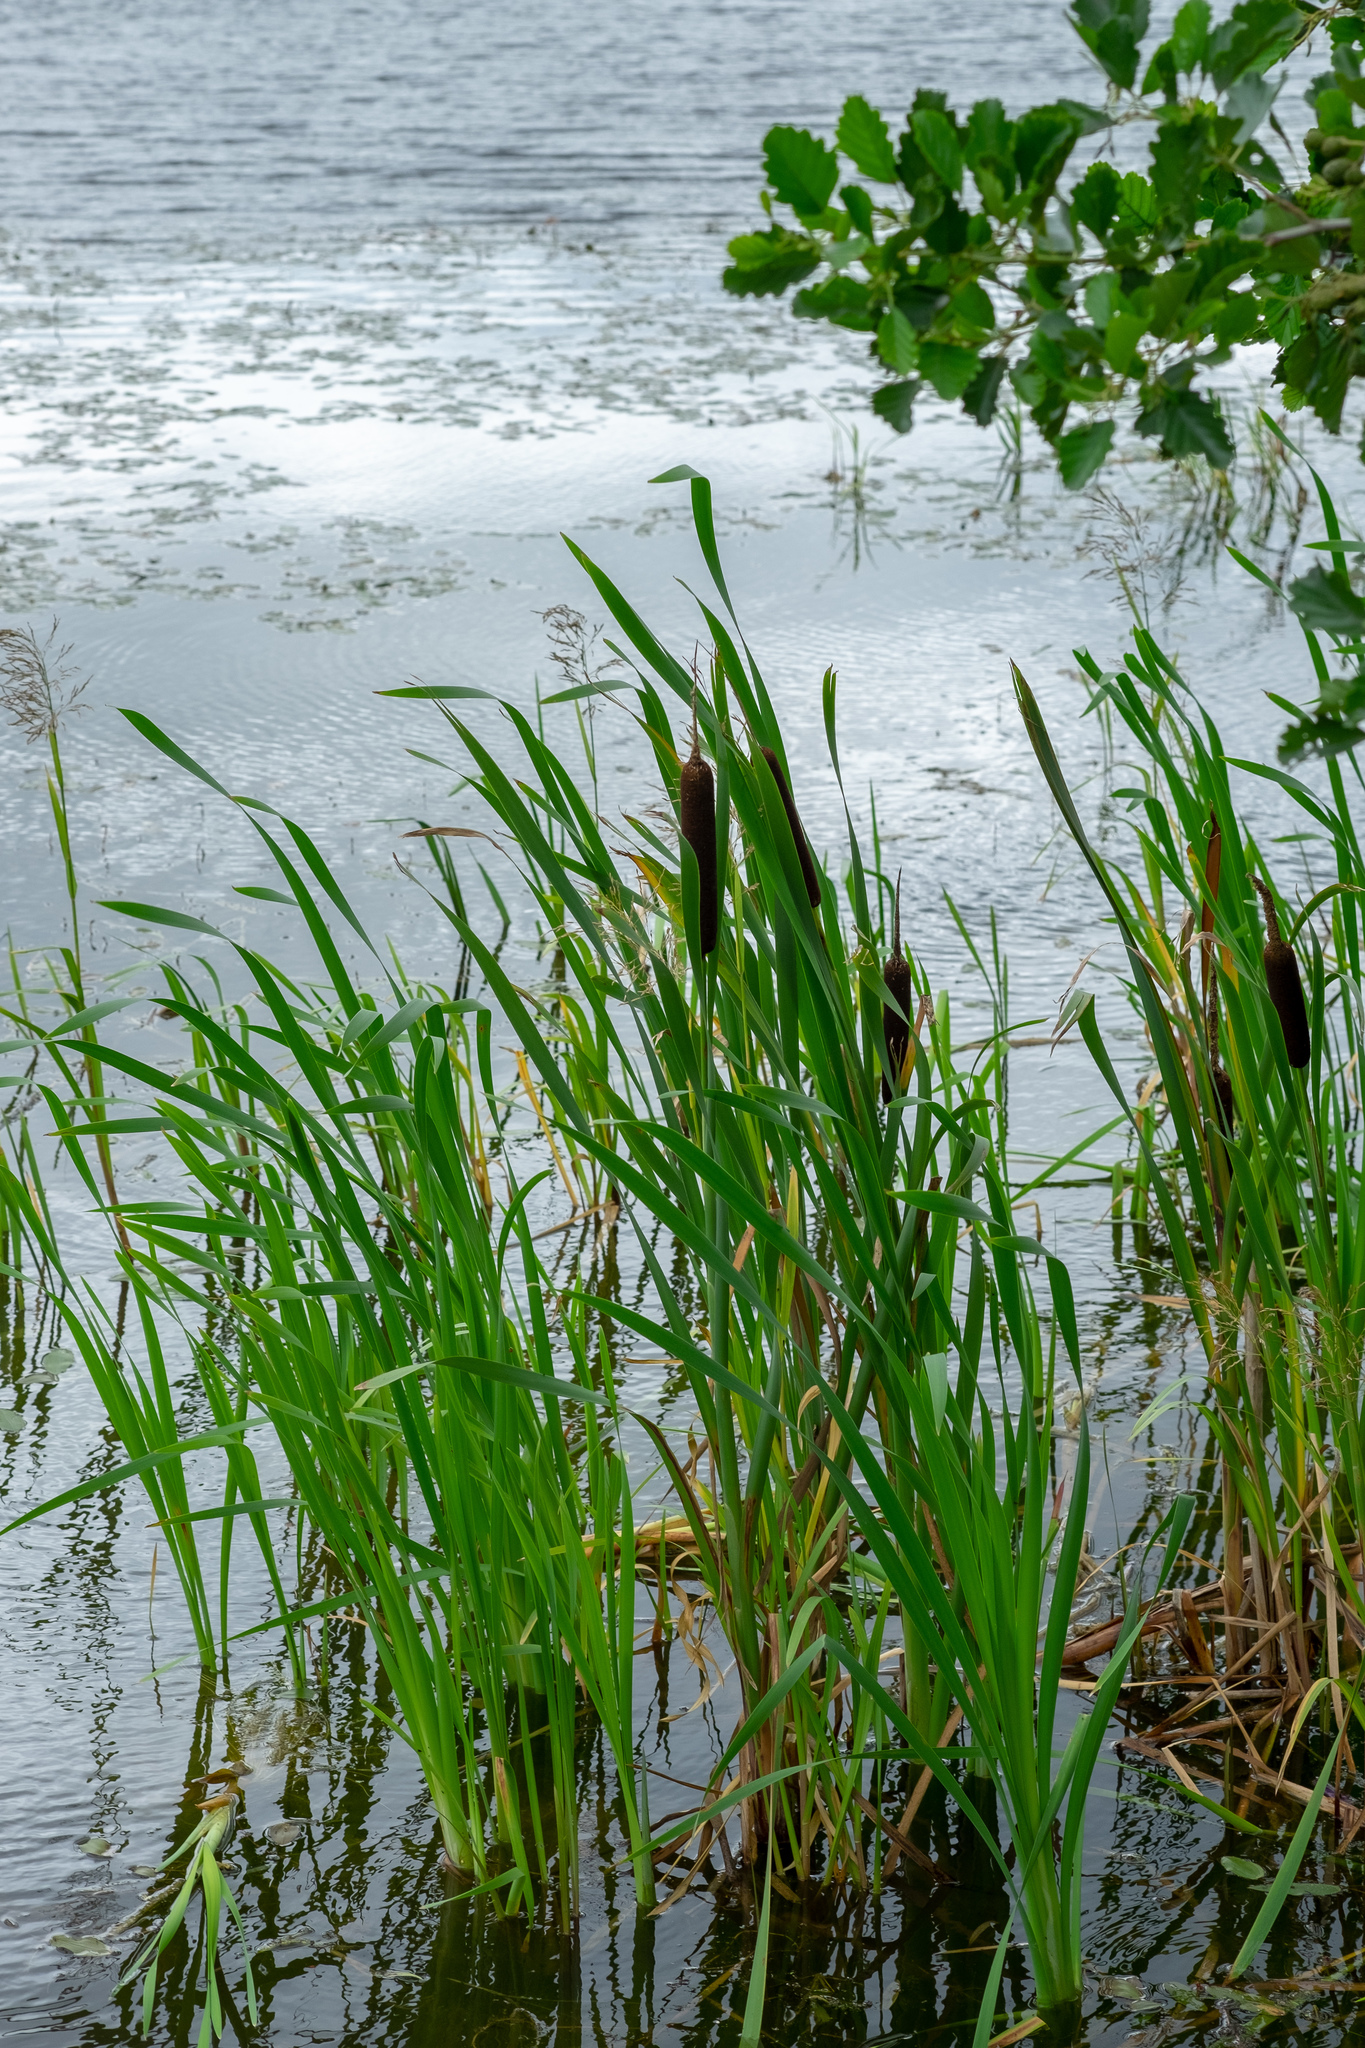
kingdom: Plantae
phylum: Tracheophyta
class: Liliopsida
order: Poales
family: Typhaceae
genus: Typha
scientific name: Typha latifolia
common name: Broadleaf cattail
